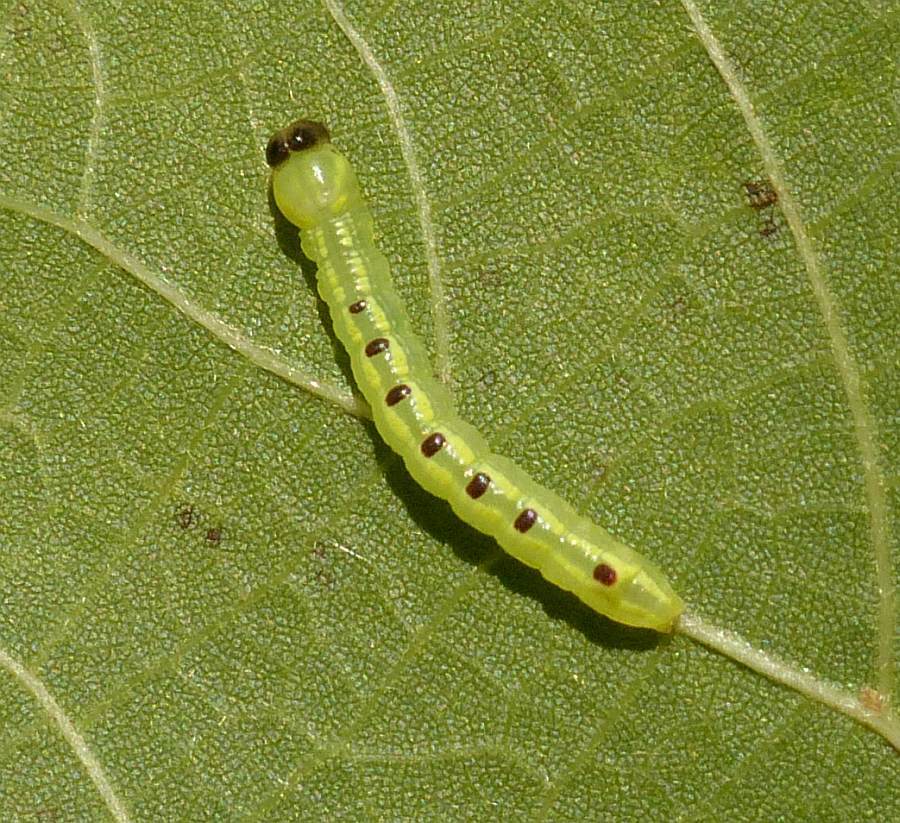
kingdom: Animalia
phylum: Arthropoda
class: Insecta
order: Lepidoptera
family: Notodontidae
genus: Ellida
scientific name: Ellida caniplaga
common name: Linden prominent
